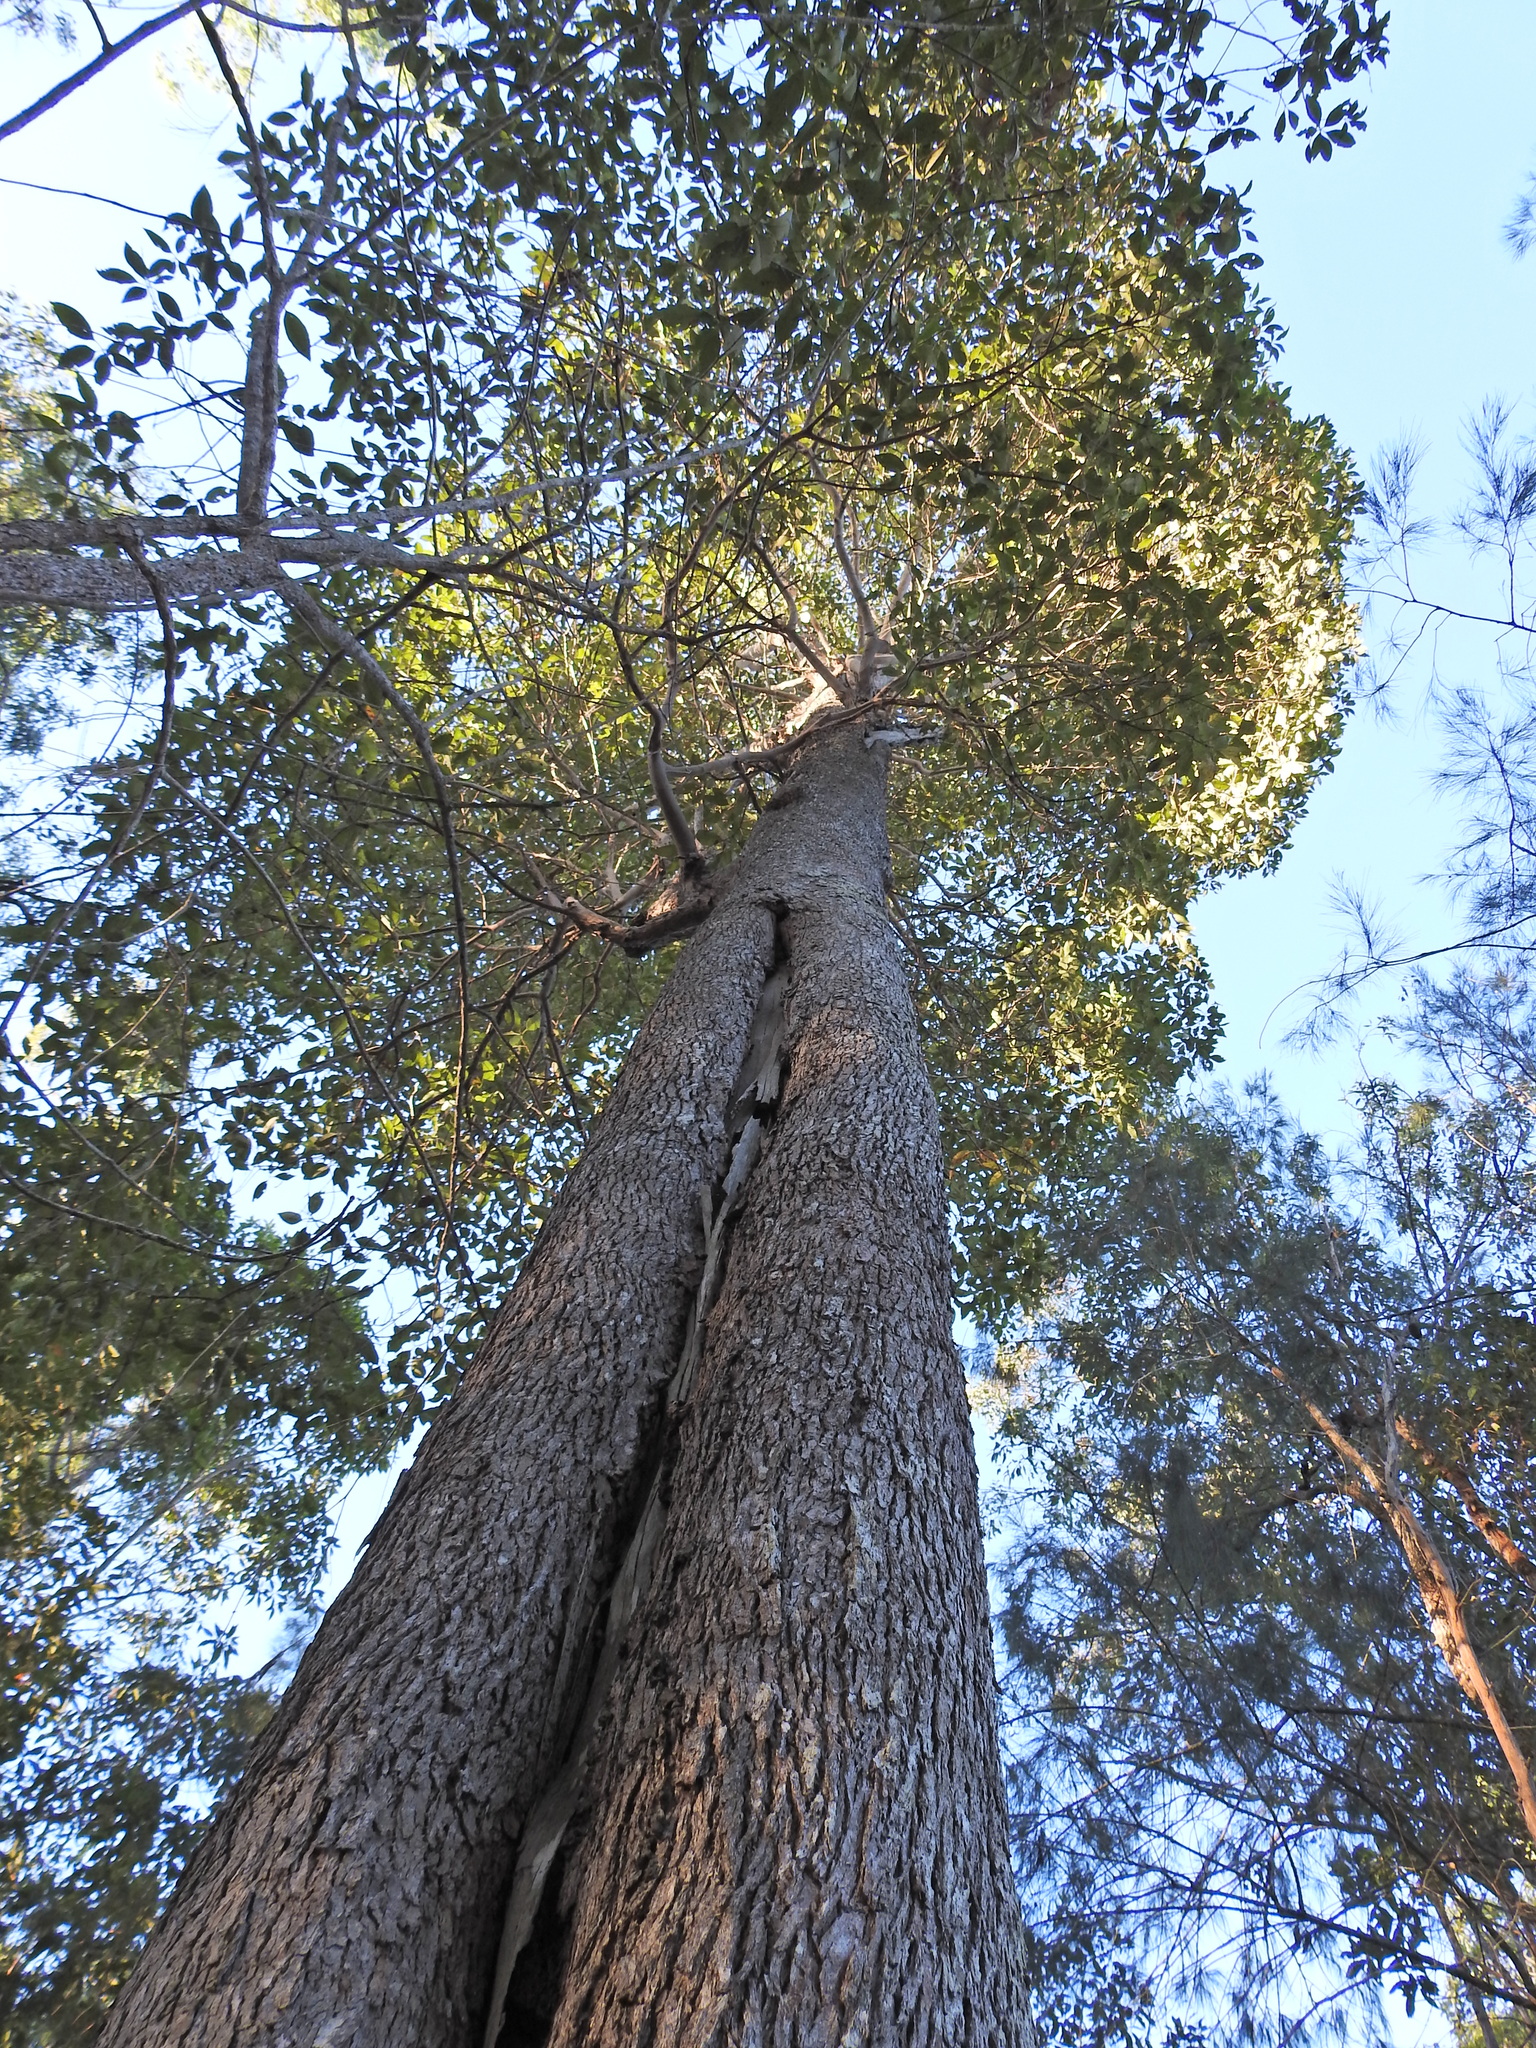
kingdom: Plantae
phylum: Tracheophyta
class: Magnoliopsida
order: Myrtales
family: Myrtaceae
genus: Lophostemon
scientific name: Lophostemon confertus
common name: Brisbane box
